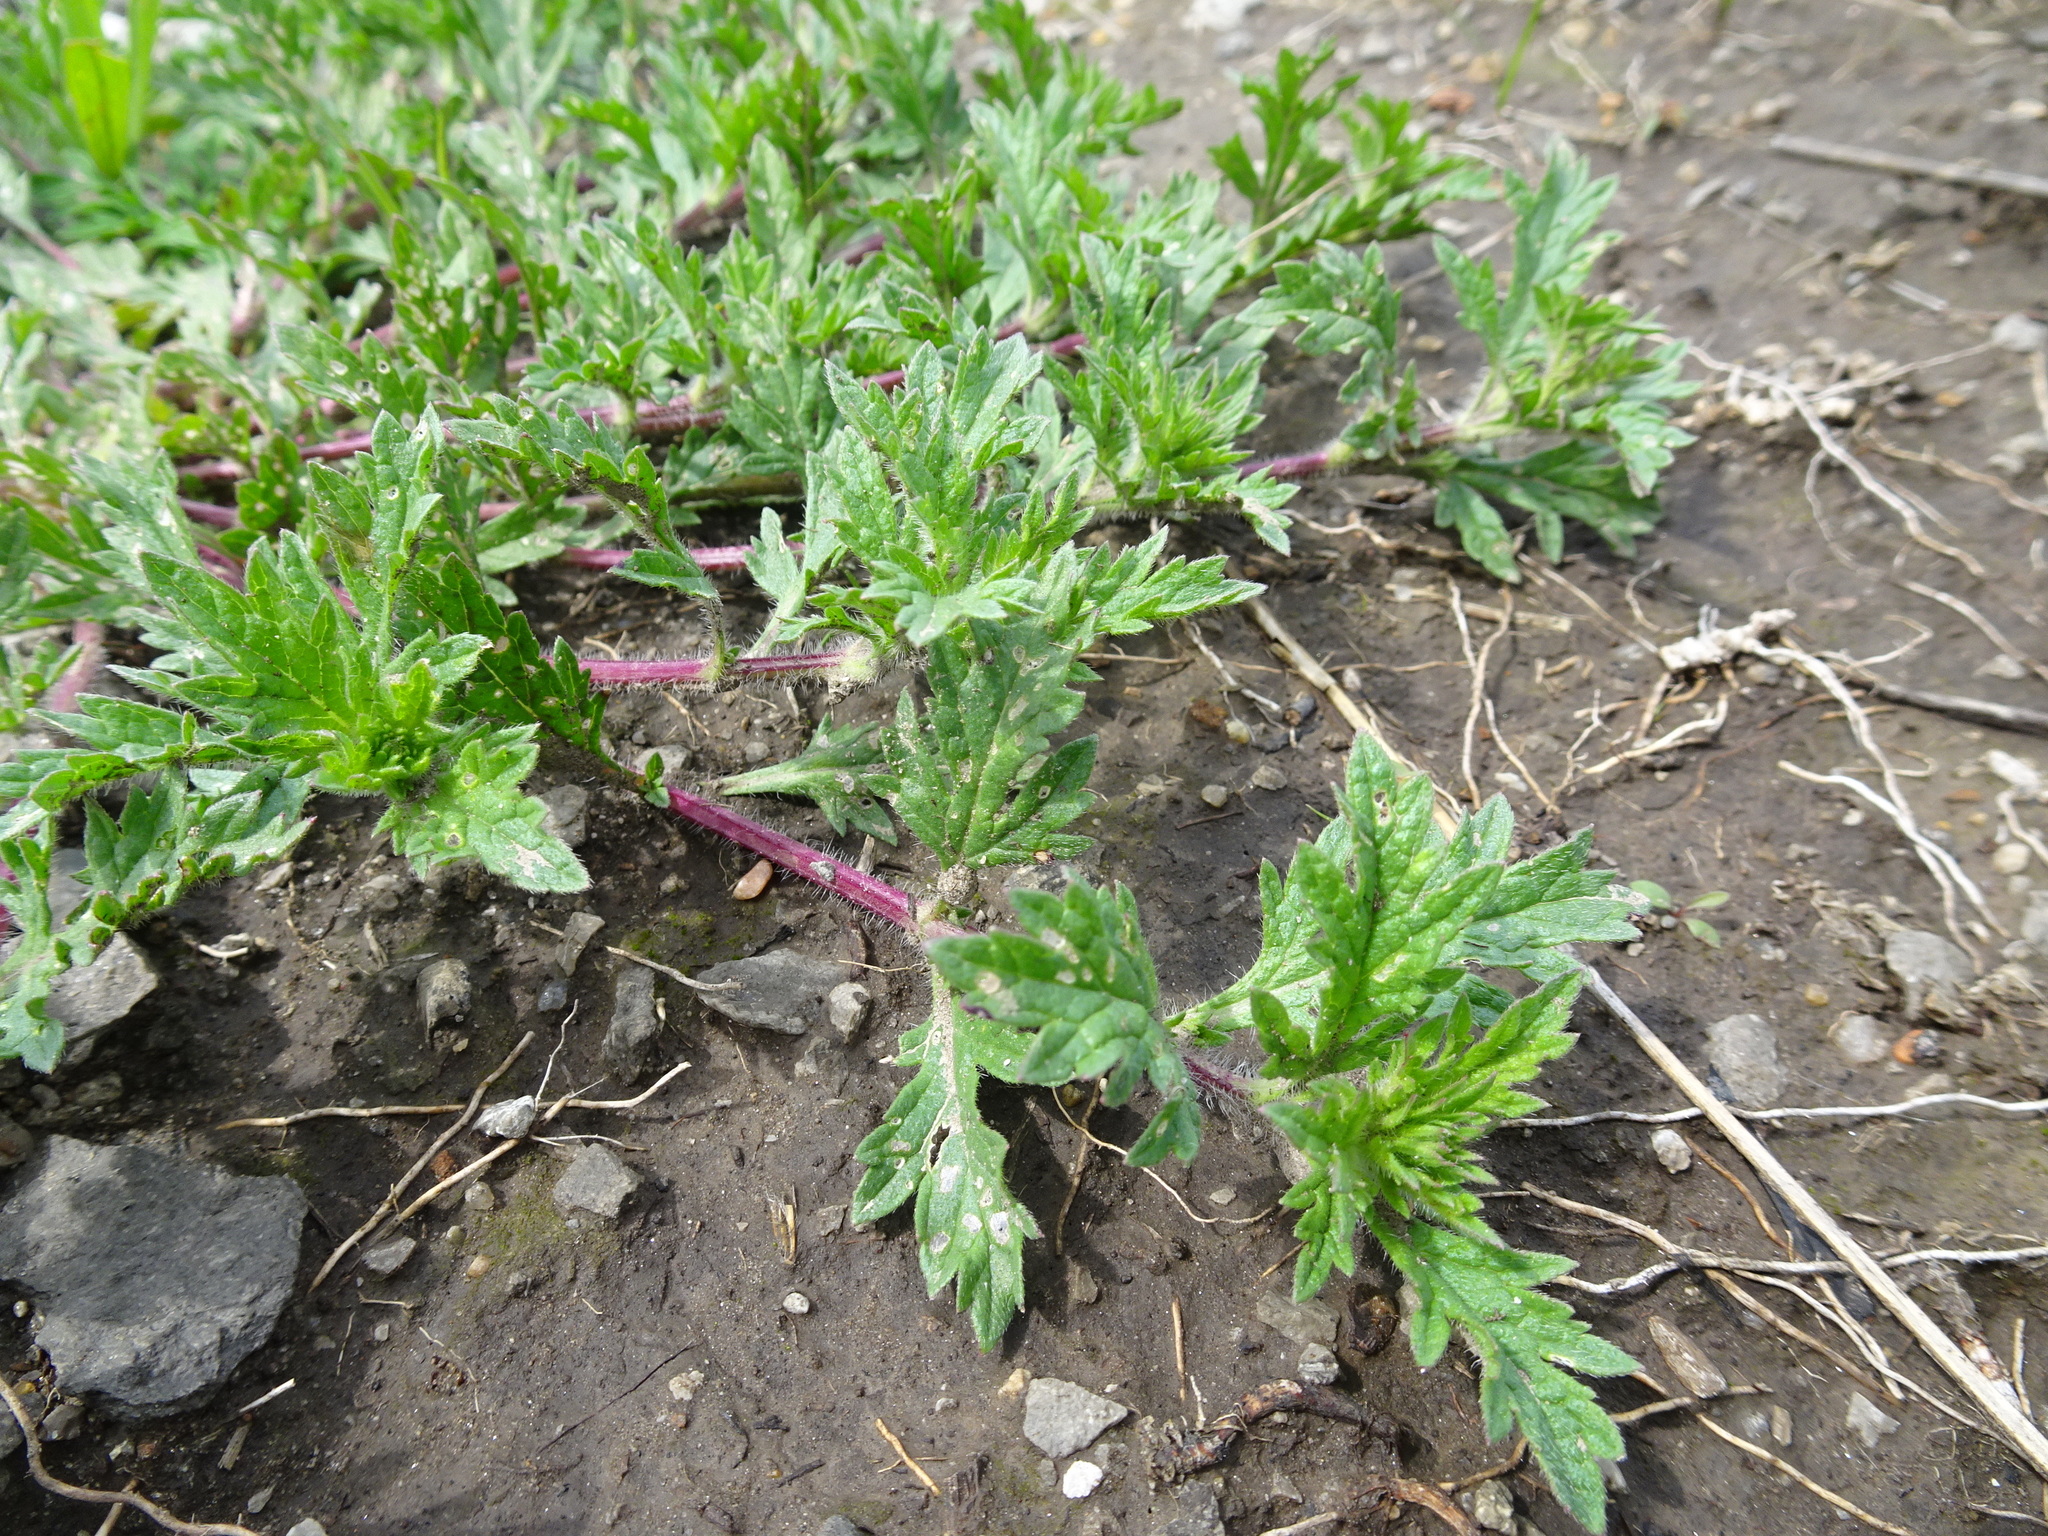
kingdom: Plantae
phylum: Tracheophyta
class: Magnoliopsida
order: Lamiales
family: Verbenaceae
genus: Verbena
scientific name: Verbena bracteata
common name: Bracted vervain
